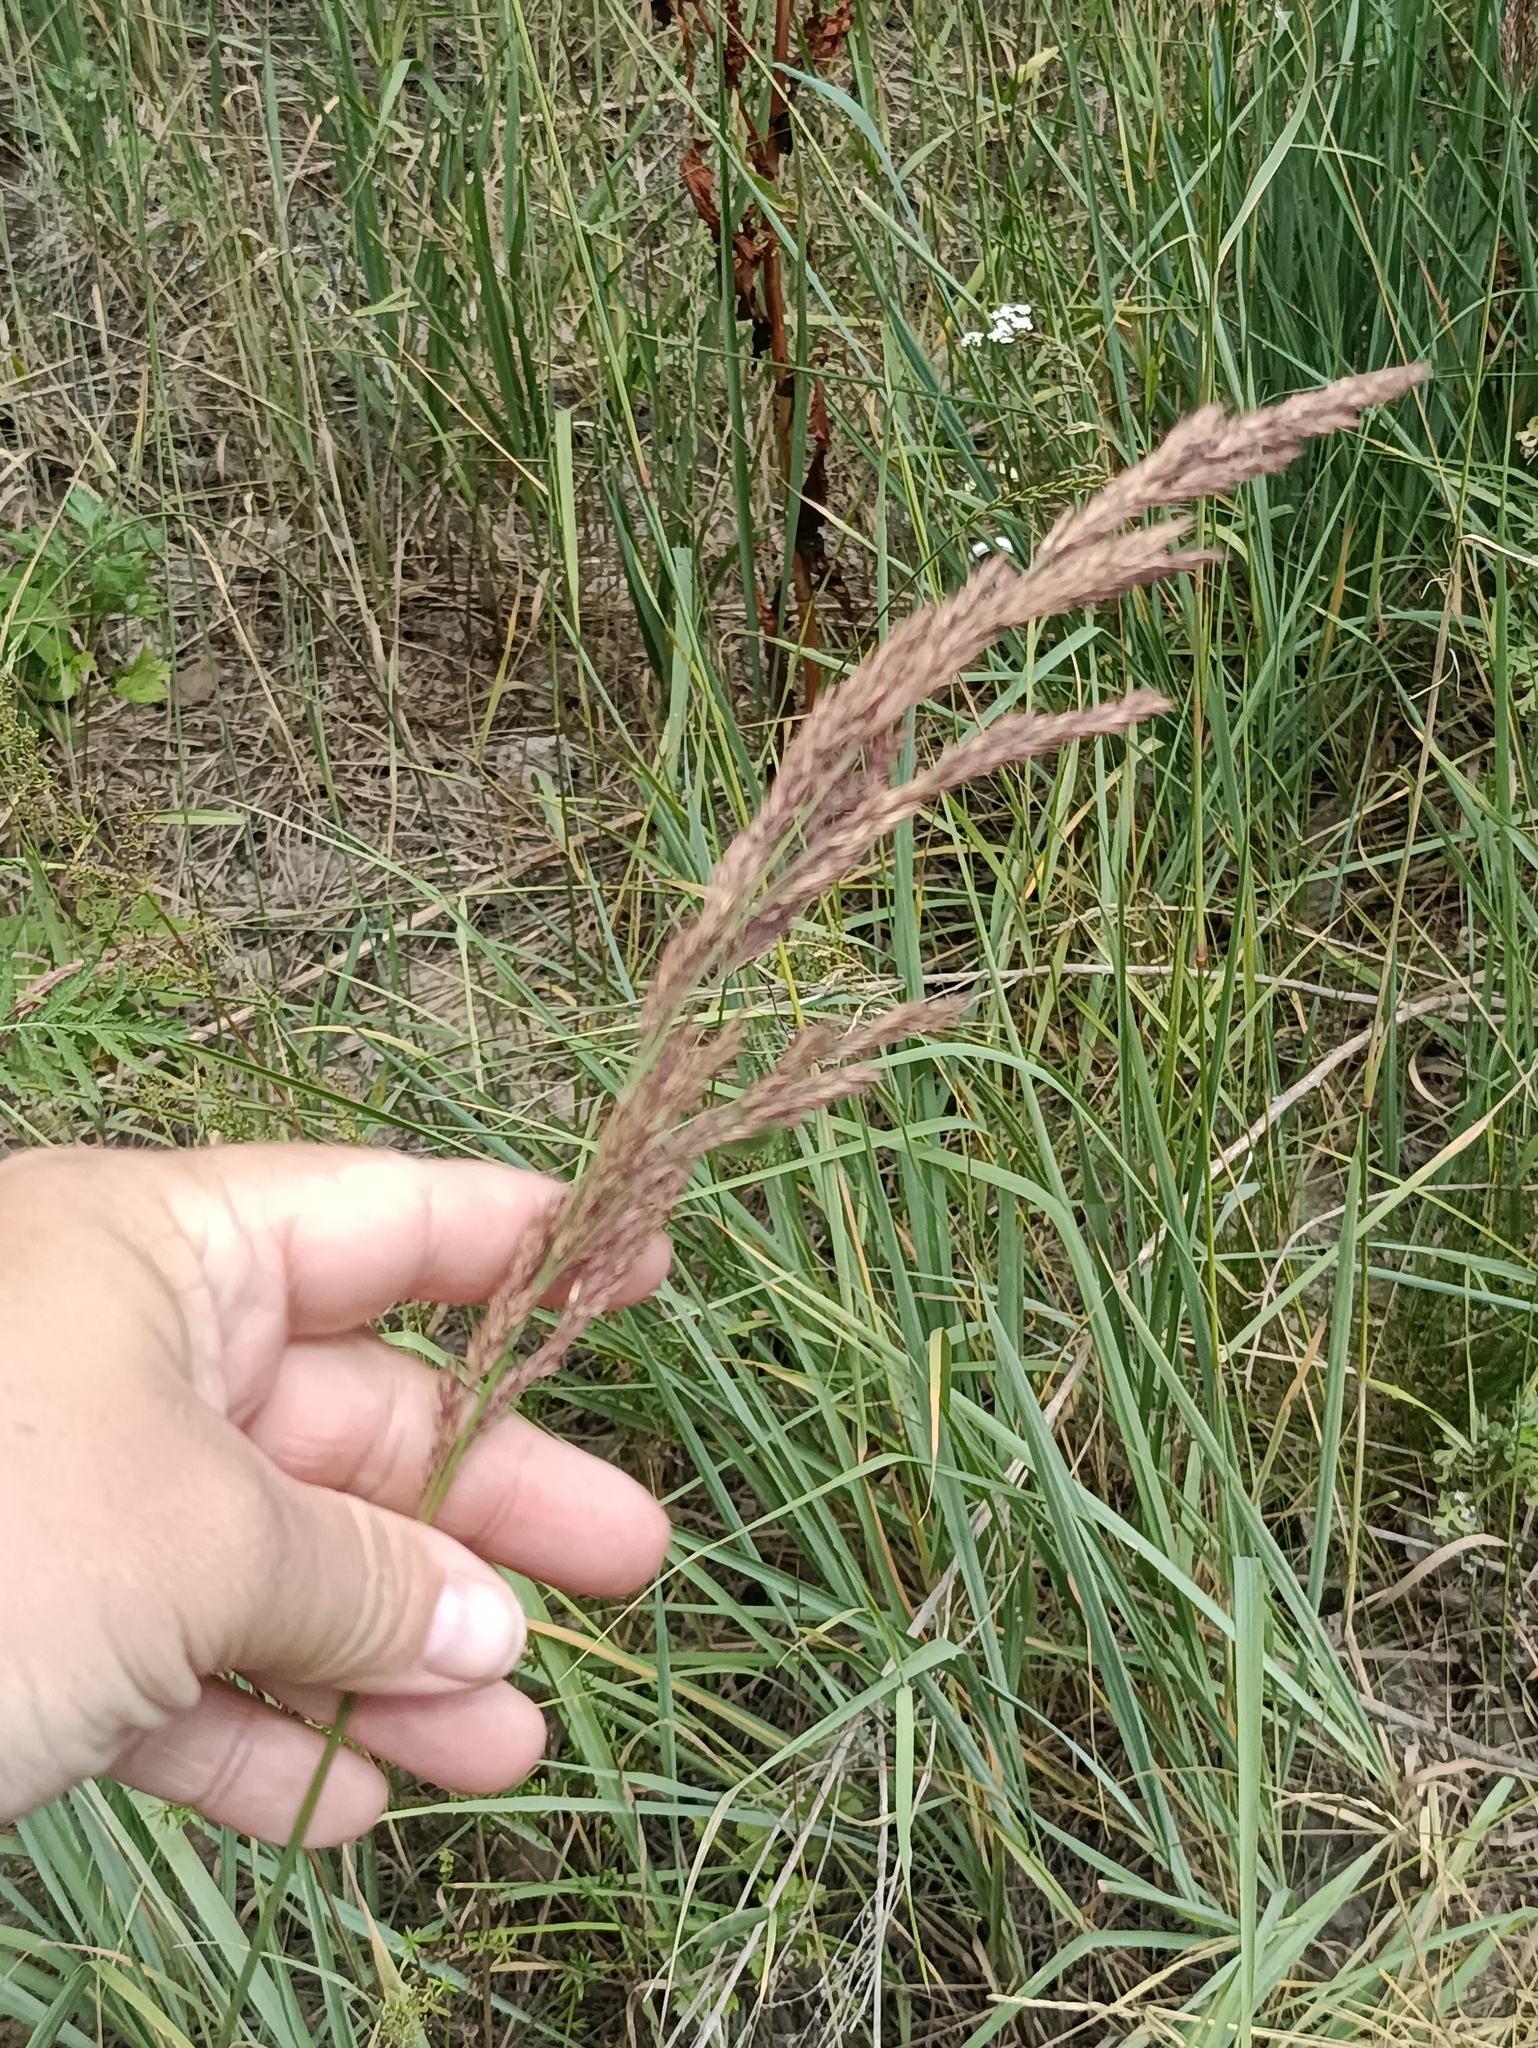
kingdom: Plantae
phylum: Tracheophyta
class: Liliopsida
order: Poales
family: Poaceae
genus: Calamagrostis
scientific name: Calamagrostis epigejos
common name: Wood small-reed
